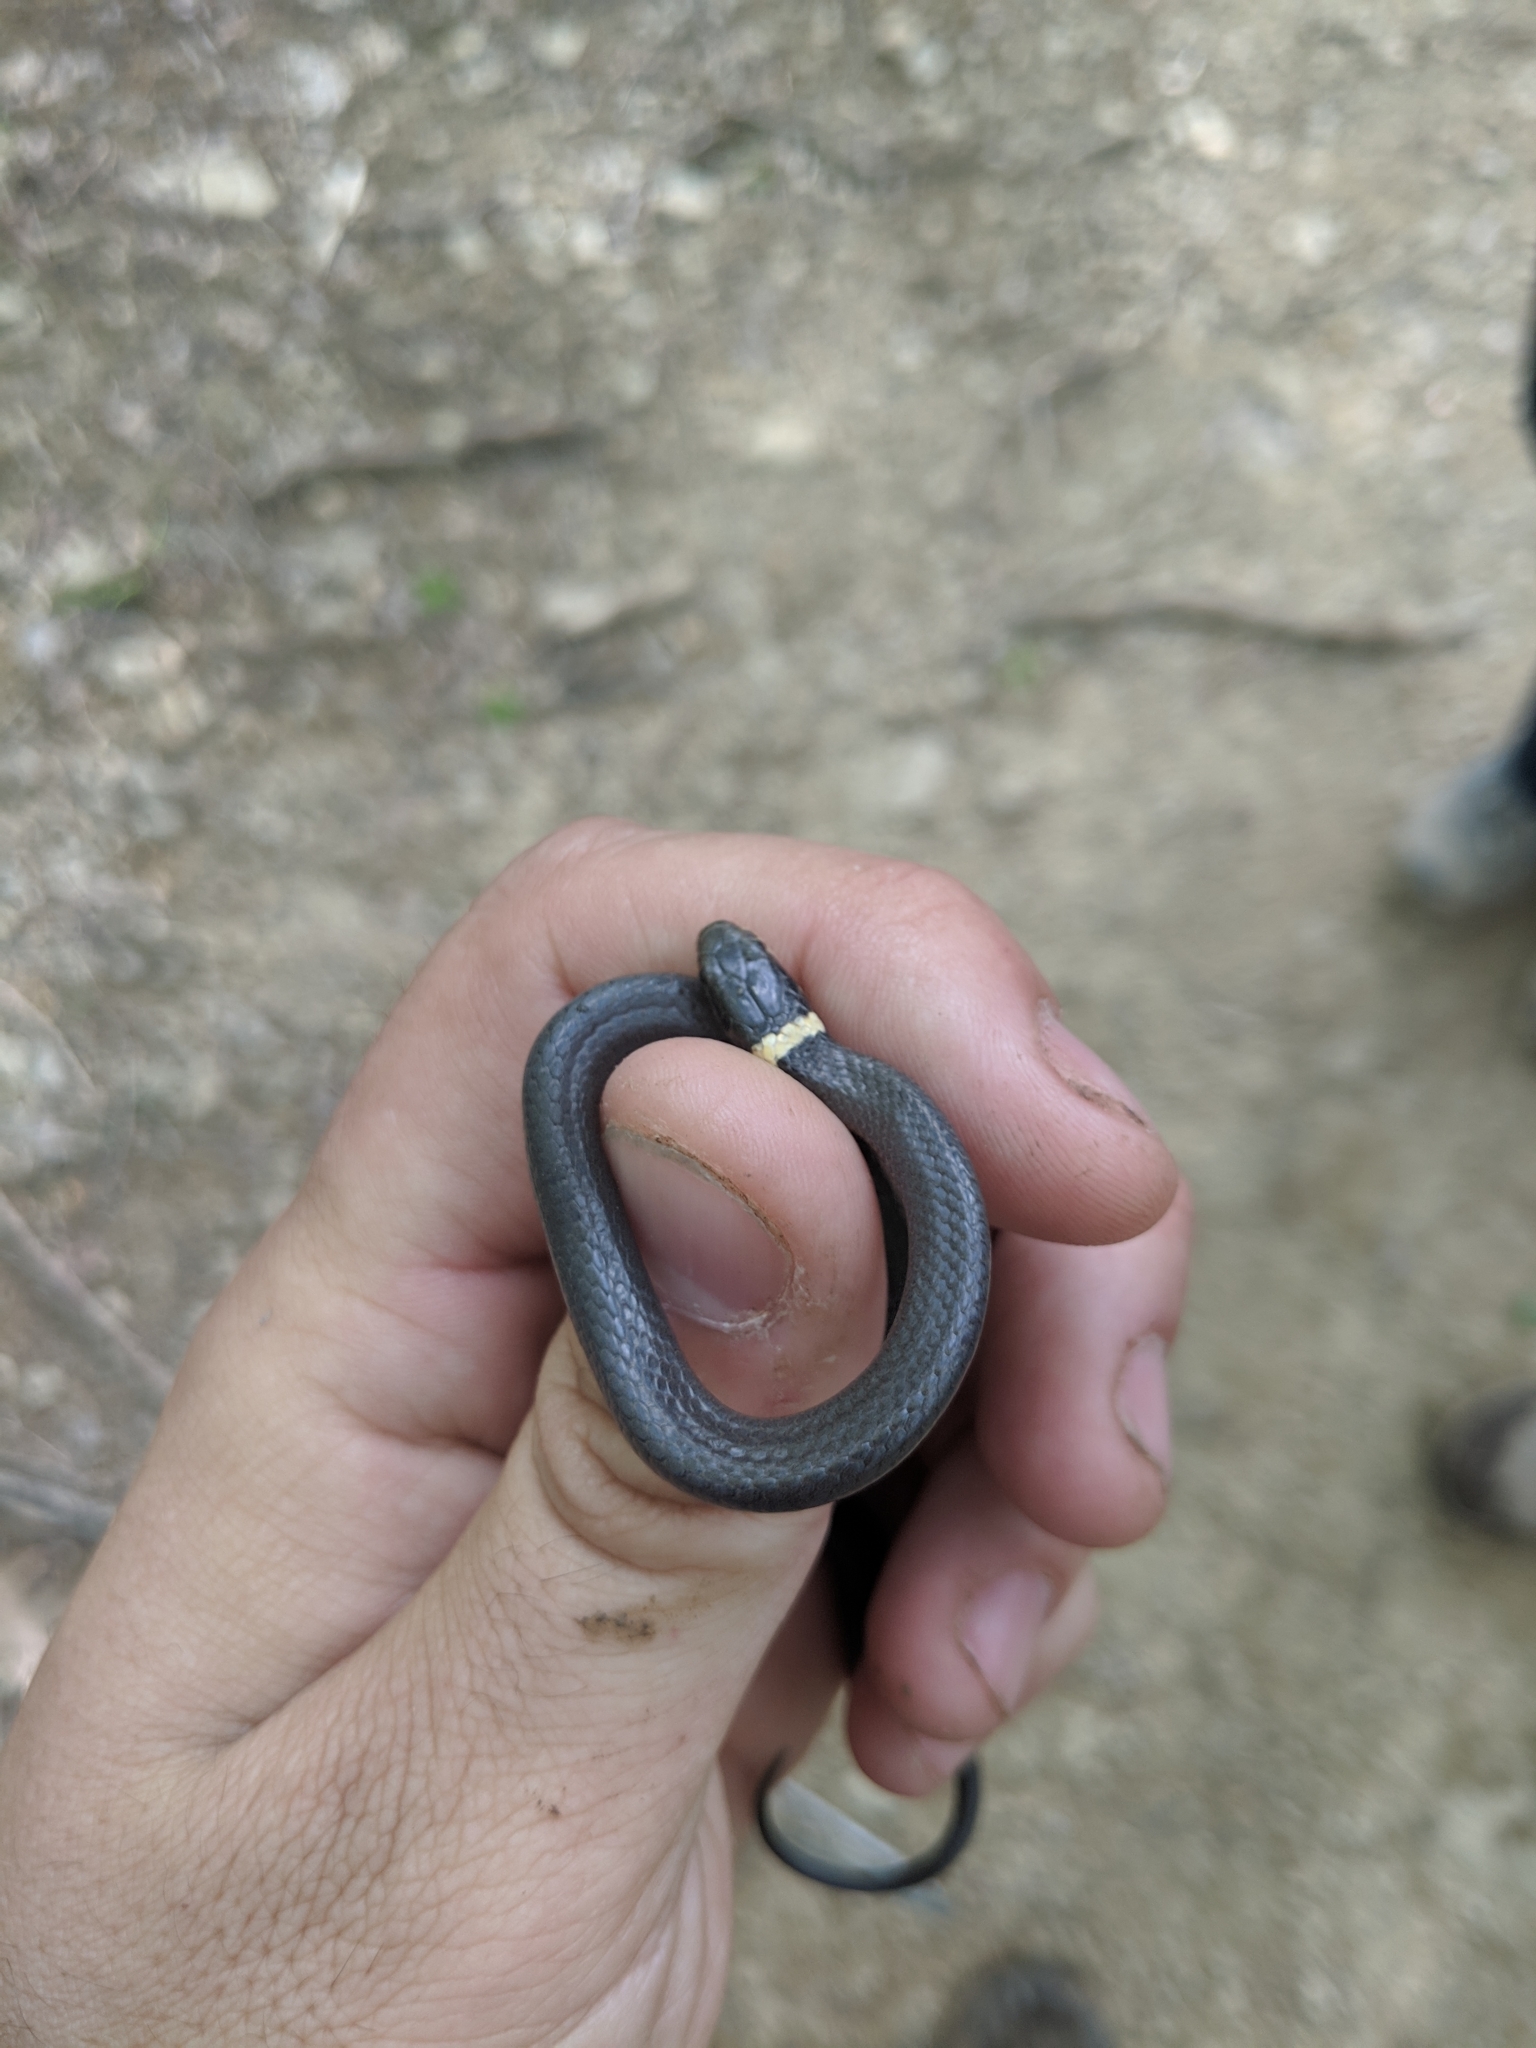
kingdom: Animalia
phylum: Chordata
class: Squamata
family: Colubridae
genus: Diadophis
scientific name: Diadophis punctatus
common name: Ringneck snake
